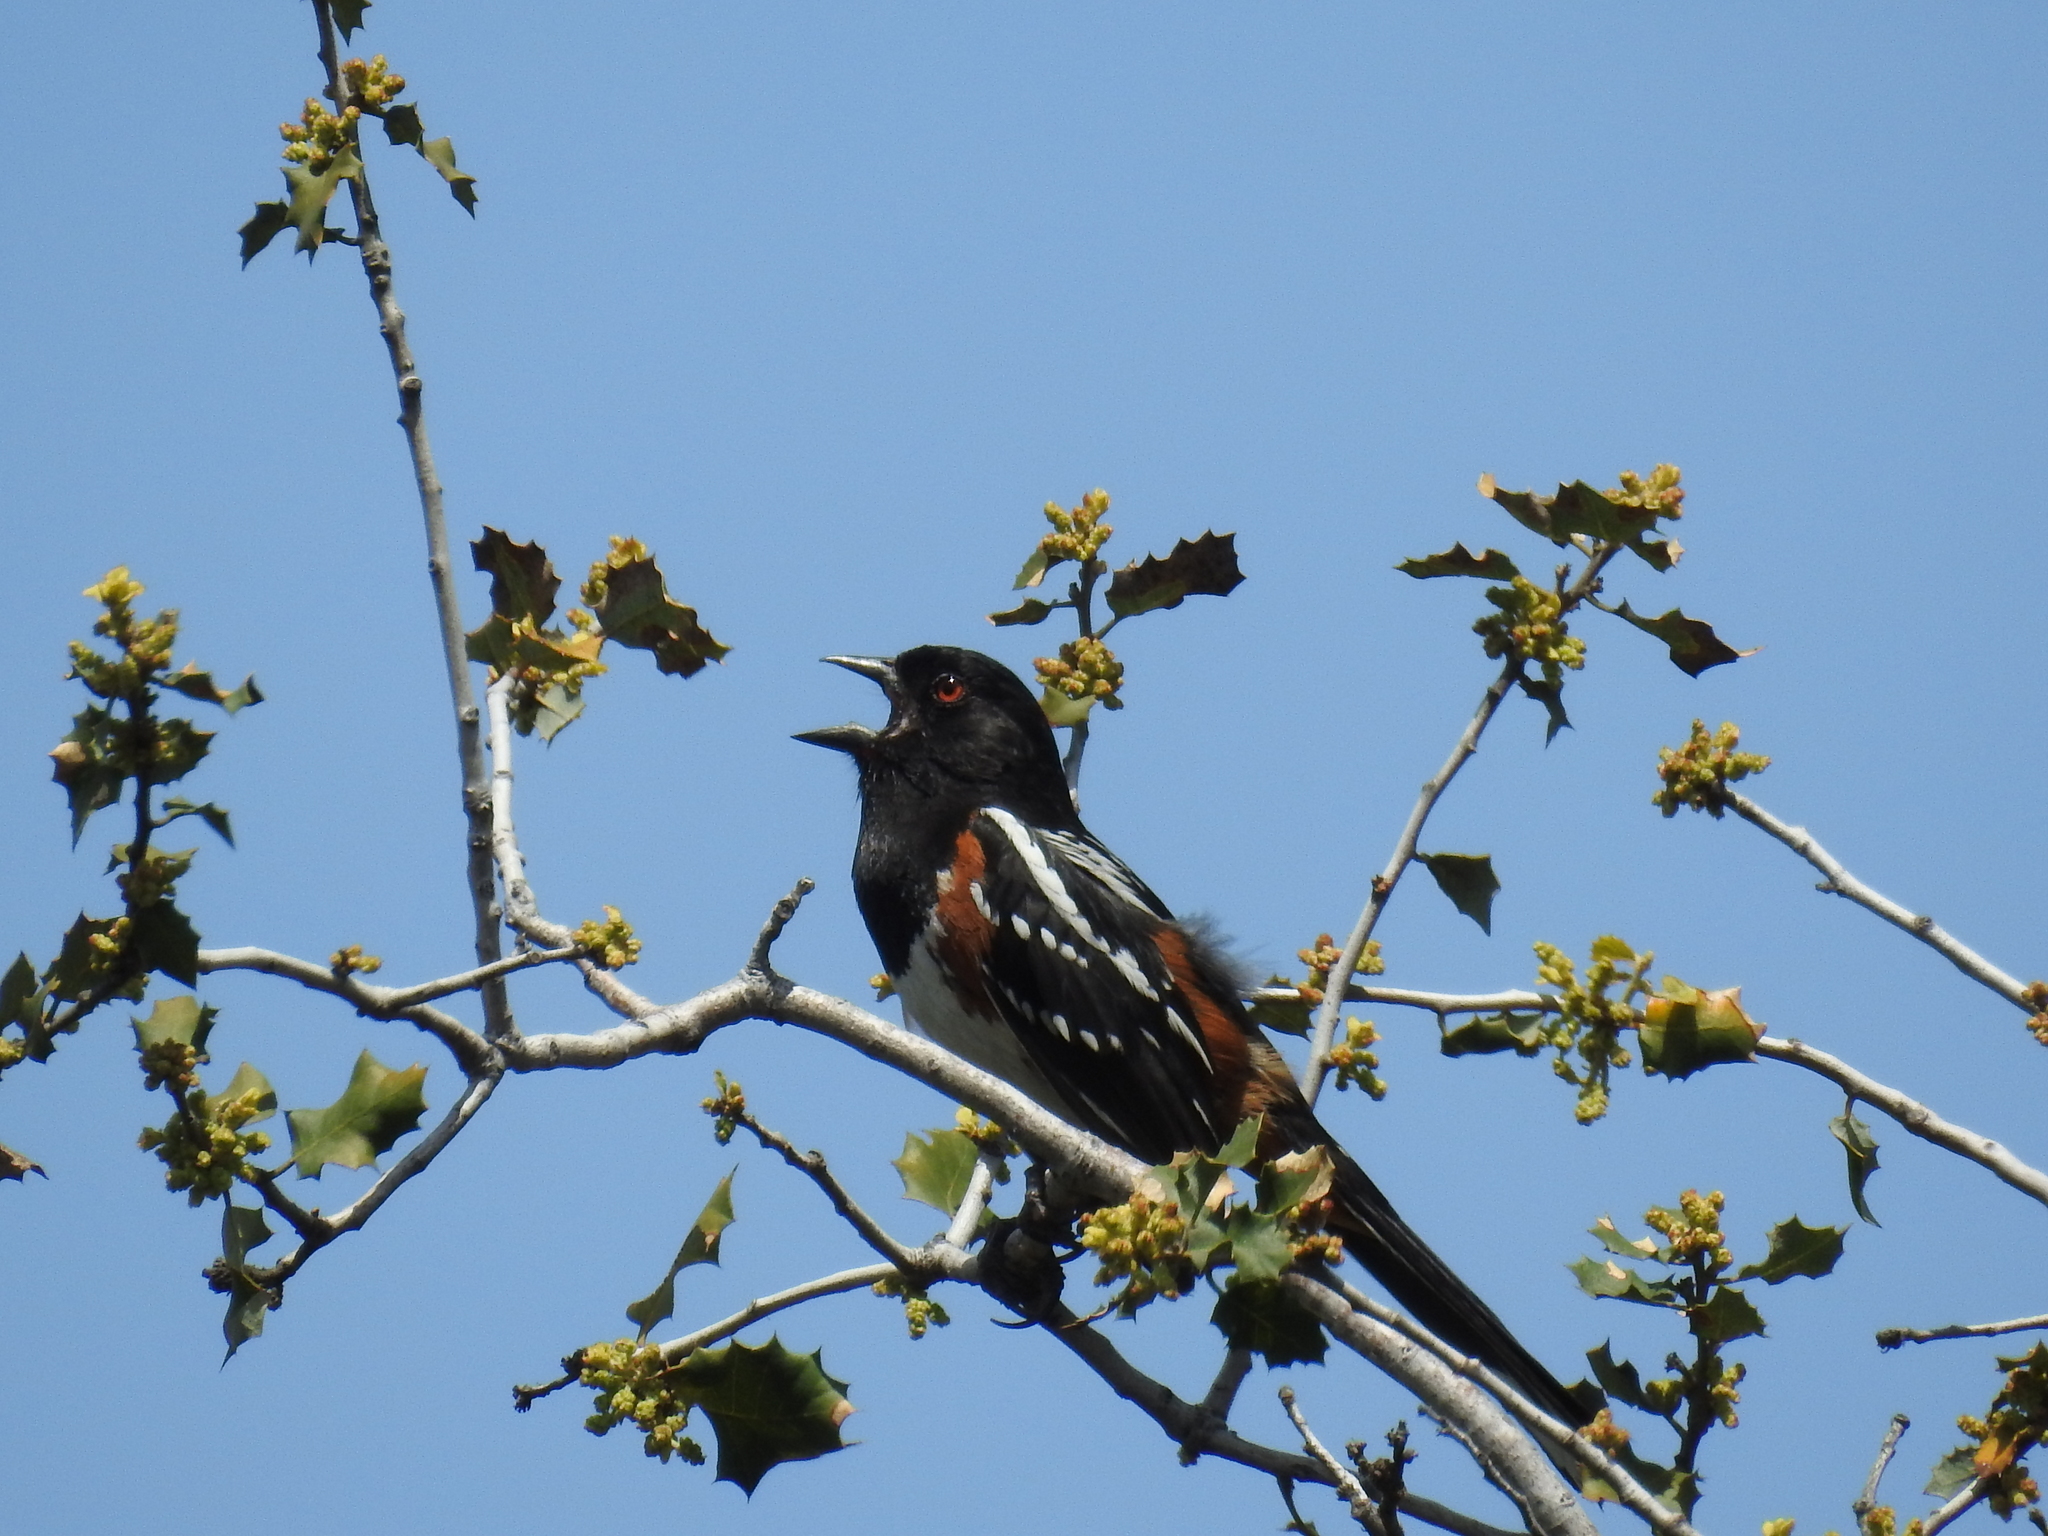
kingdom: Animalia
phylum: Chordata
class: Aves
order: Passeriformes
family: Passerellidae
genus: Pipilo
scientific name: Pipilo maculatus
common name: Spotted towhee
